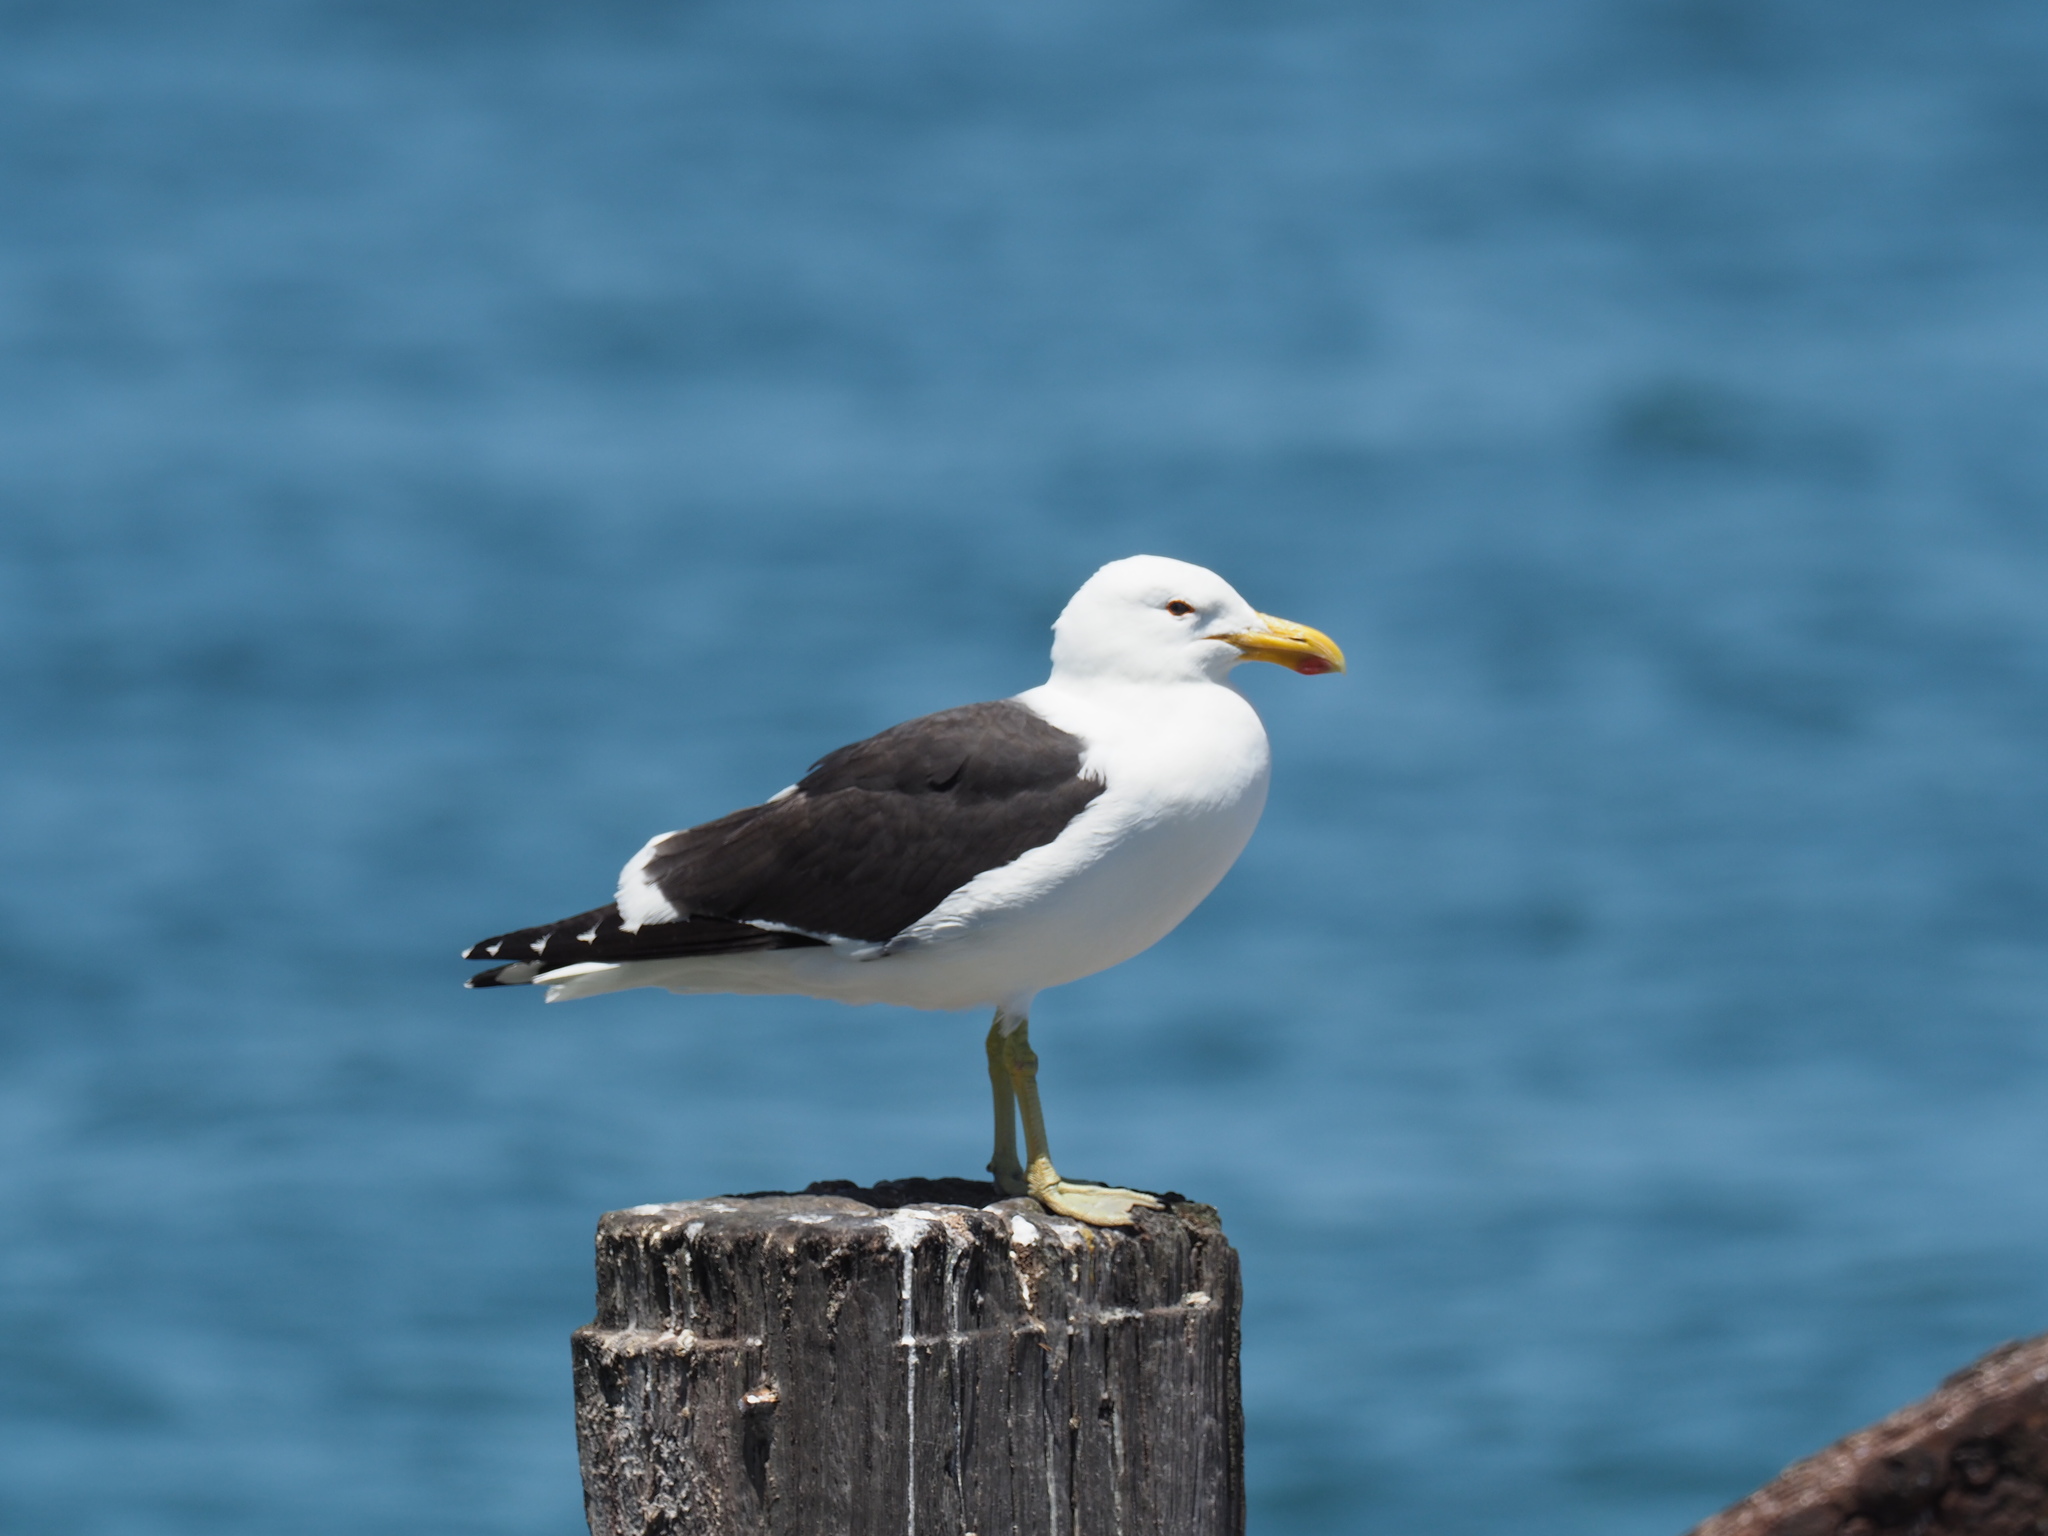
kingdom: Animalia
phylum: Chordata
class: Aves
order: Charadriiformes
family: Laridae
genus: Larus
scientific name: Larus dominicanus
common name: Kelp gull
